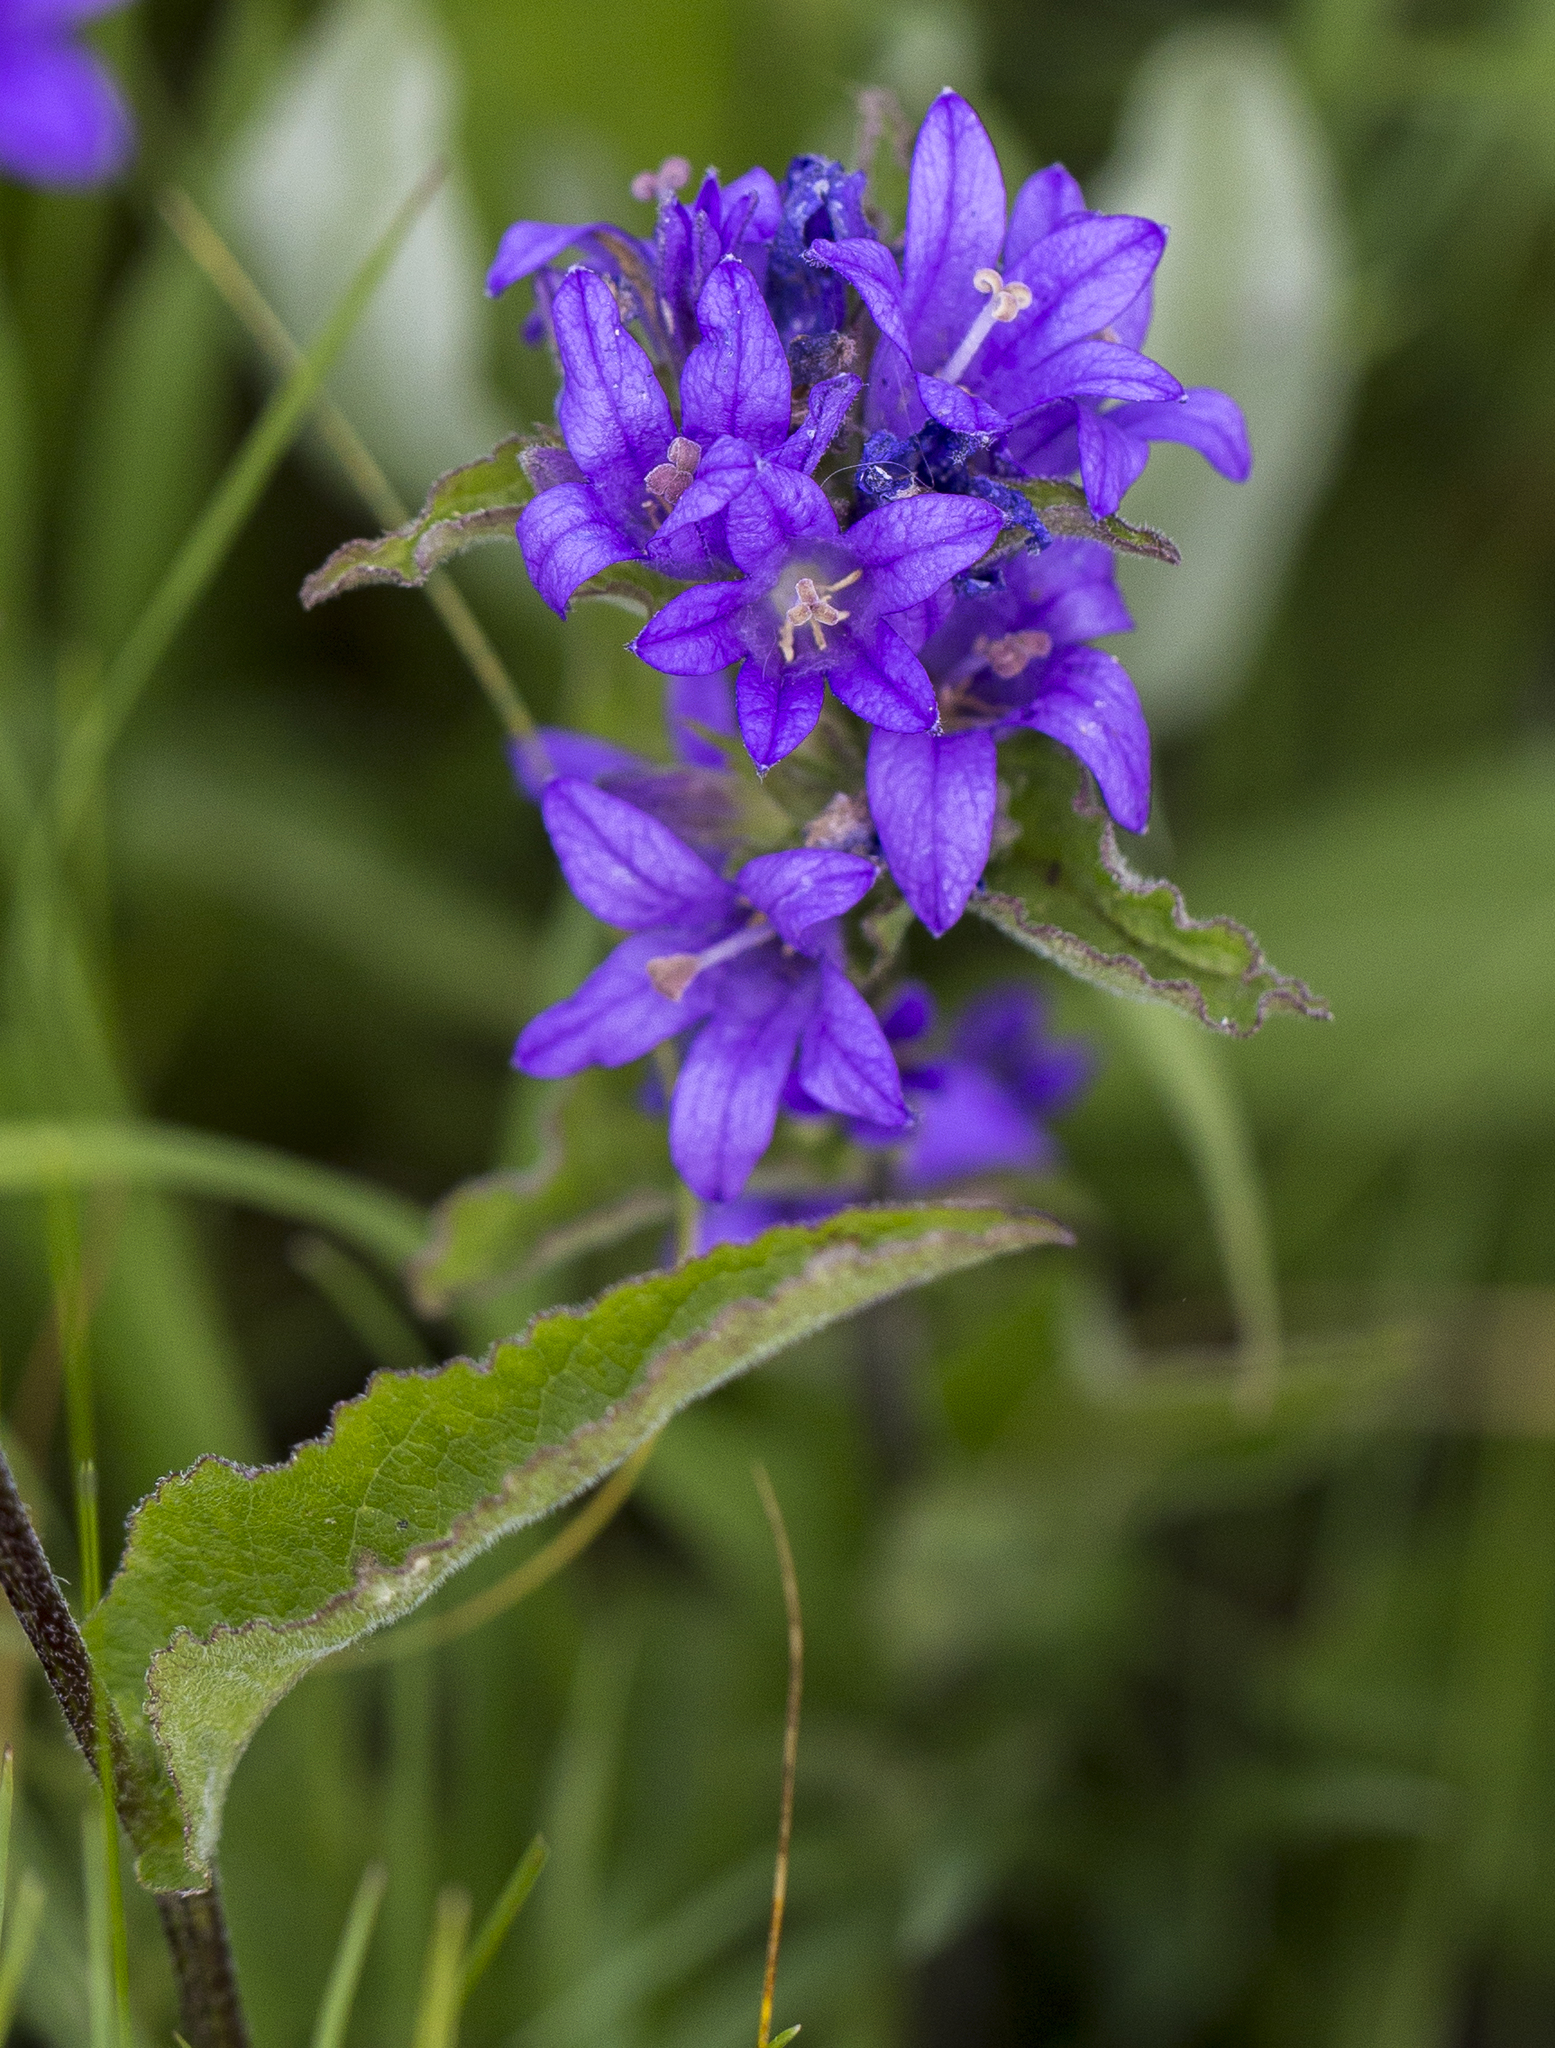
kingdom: Plantae
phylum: Tracheophyta
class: Magnoliopsida
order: Asterales
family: Campanulaceae
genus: Campanula
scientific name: Campanula glomerata
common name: Clustered bellflower
